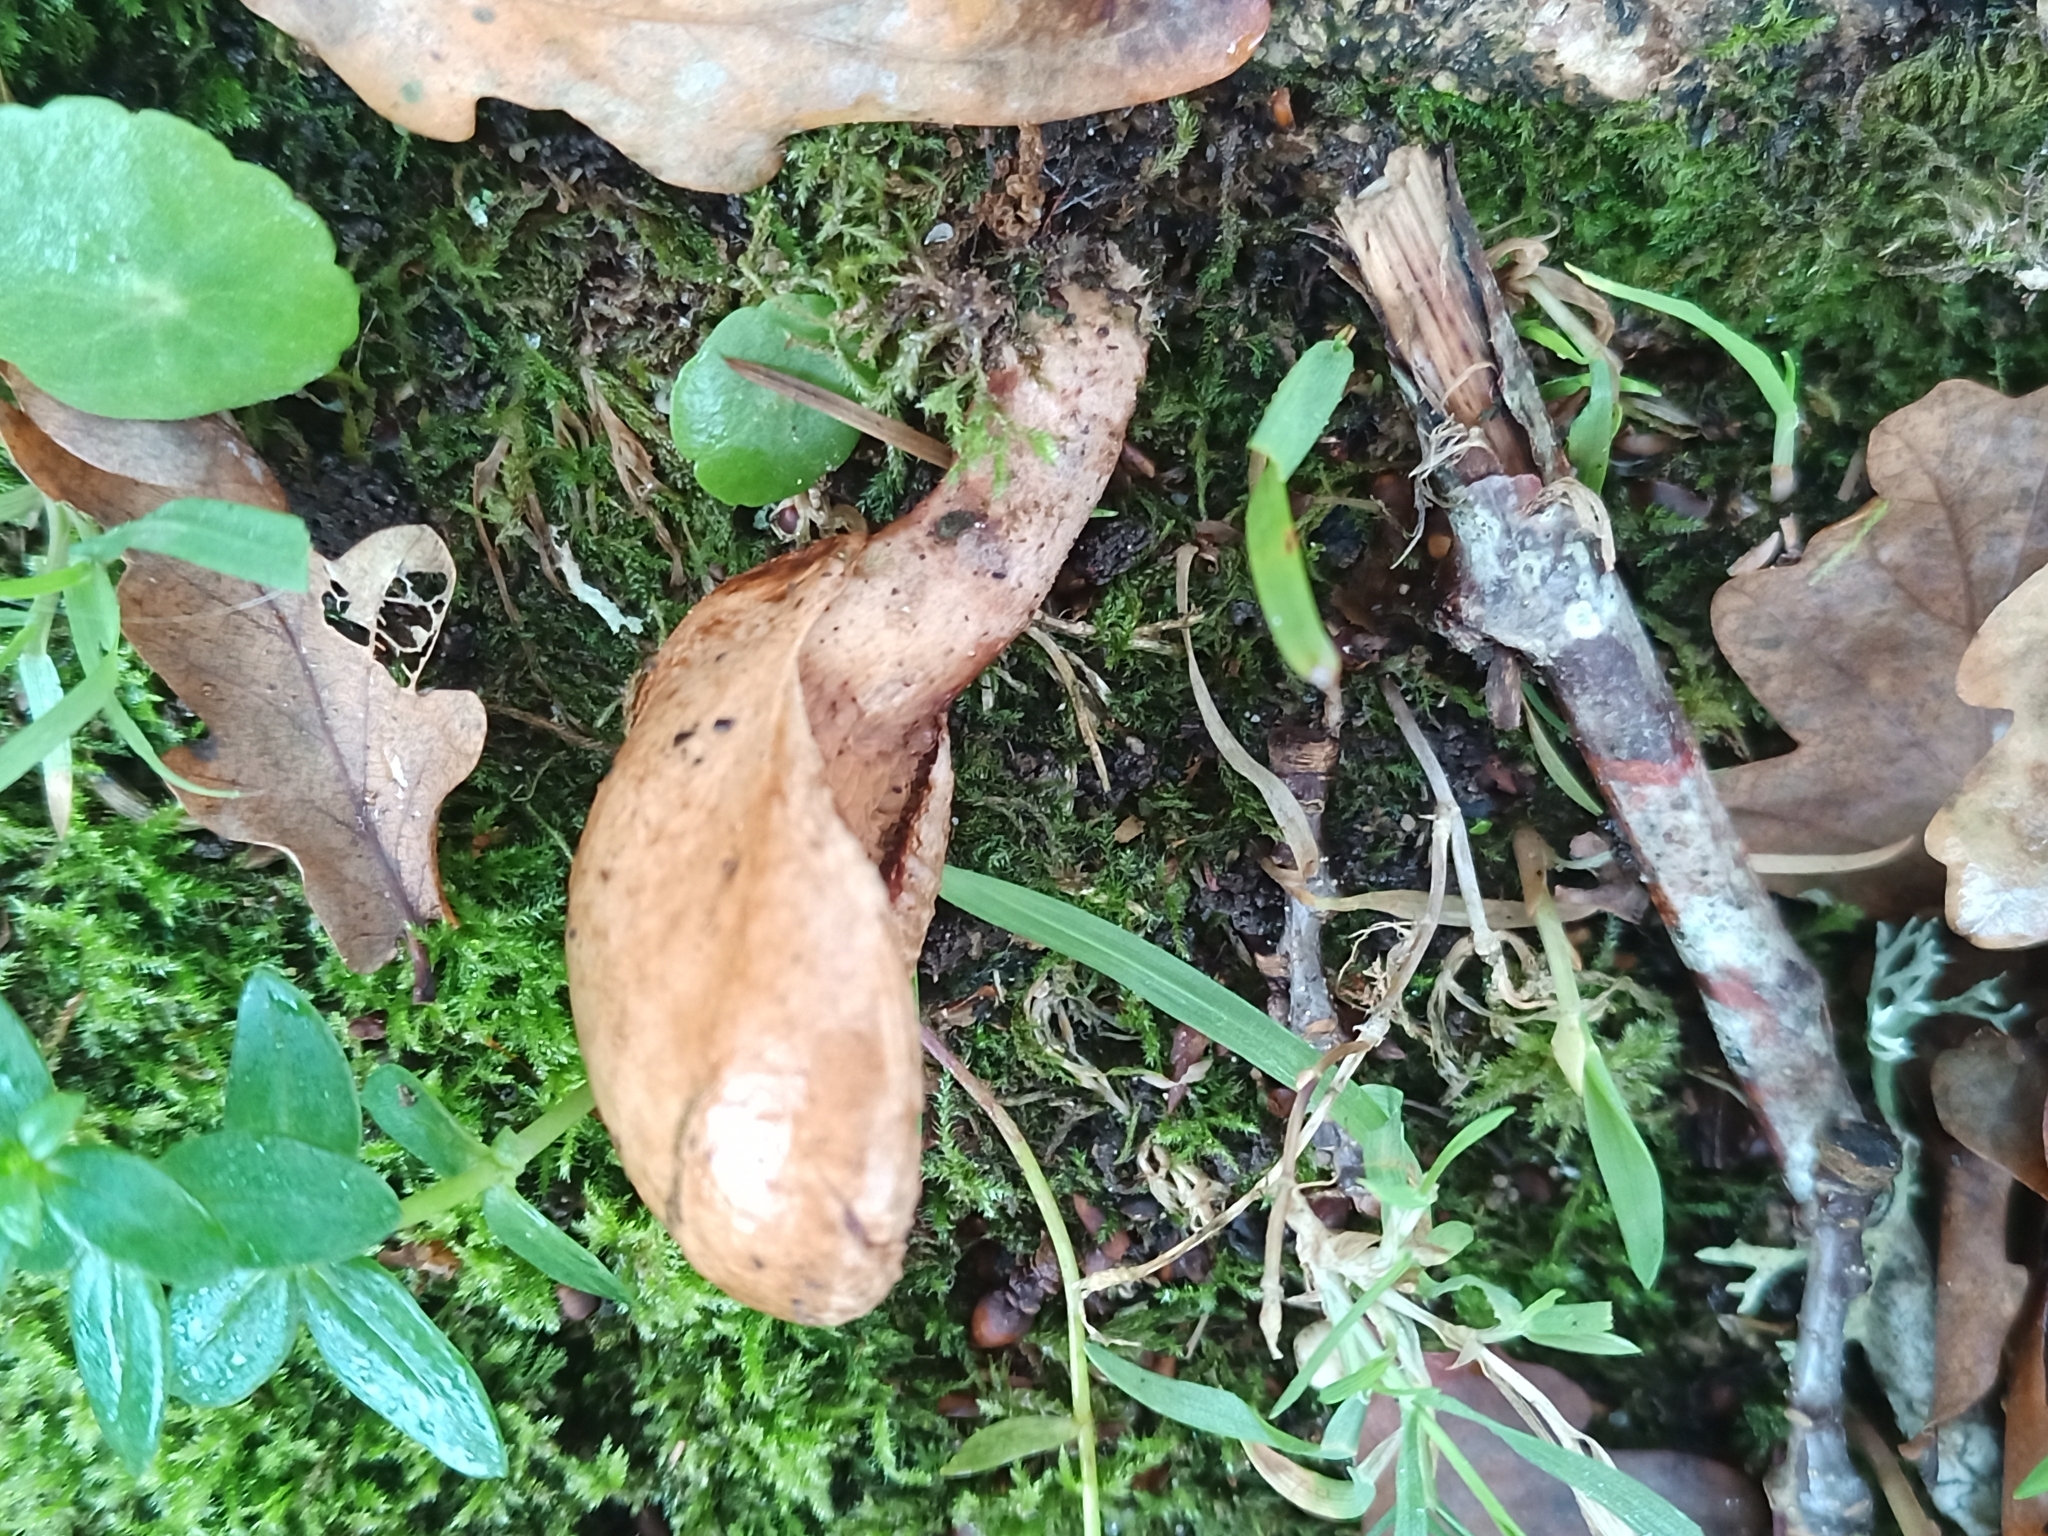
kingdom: Fungi
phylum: Basidiomycota
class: Agaricomycetes
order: Boletales
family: Tapinellaceae
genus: Tapinella
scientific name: Tapinella panuoides
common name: Oyster rollrim
